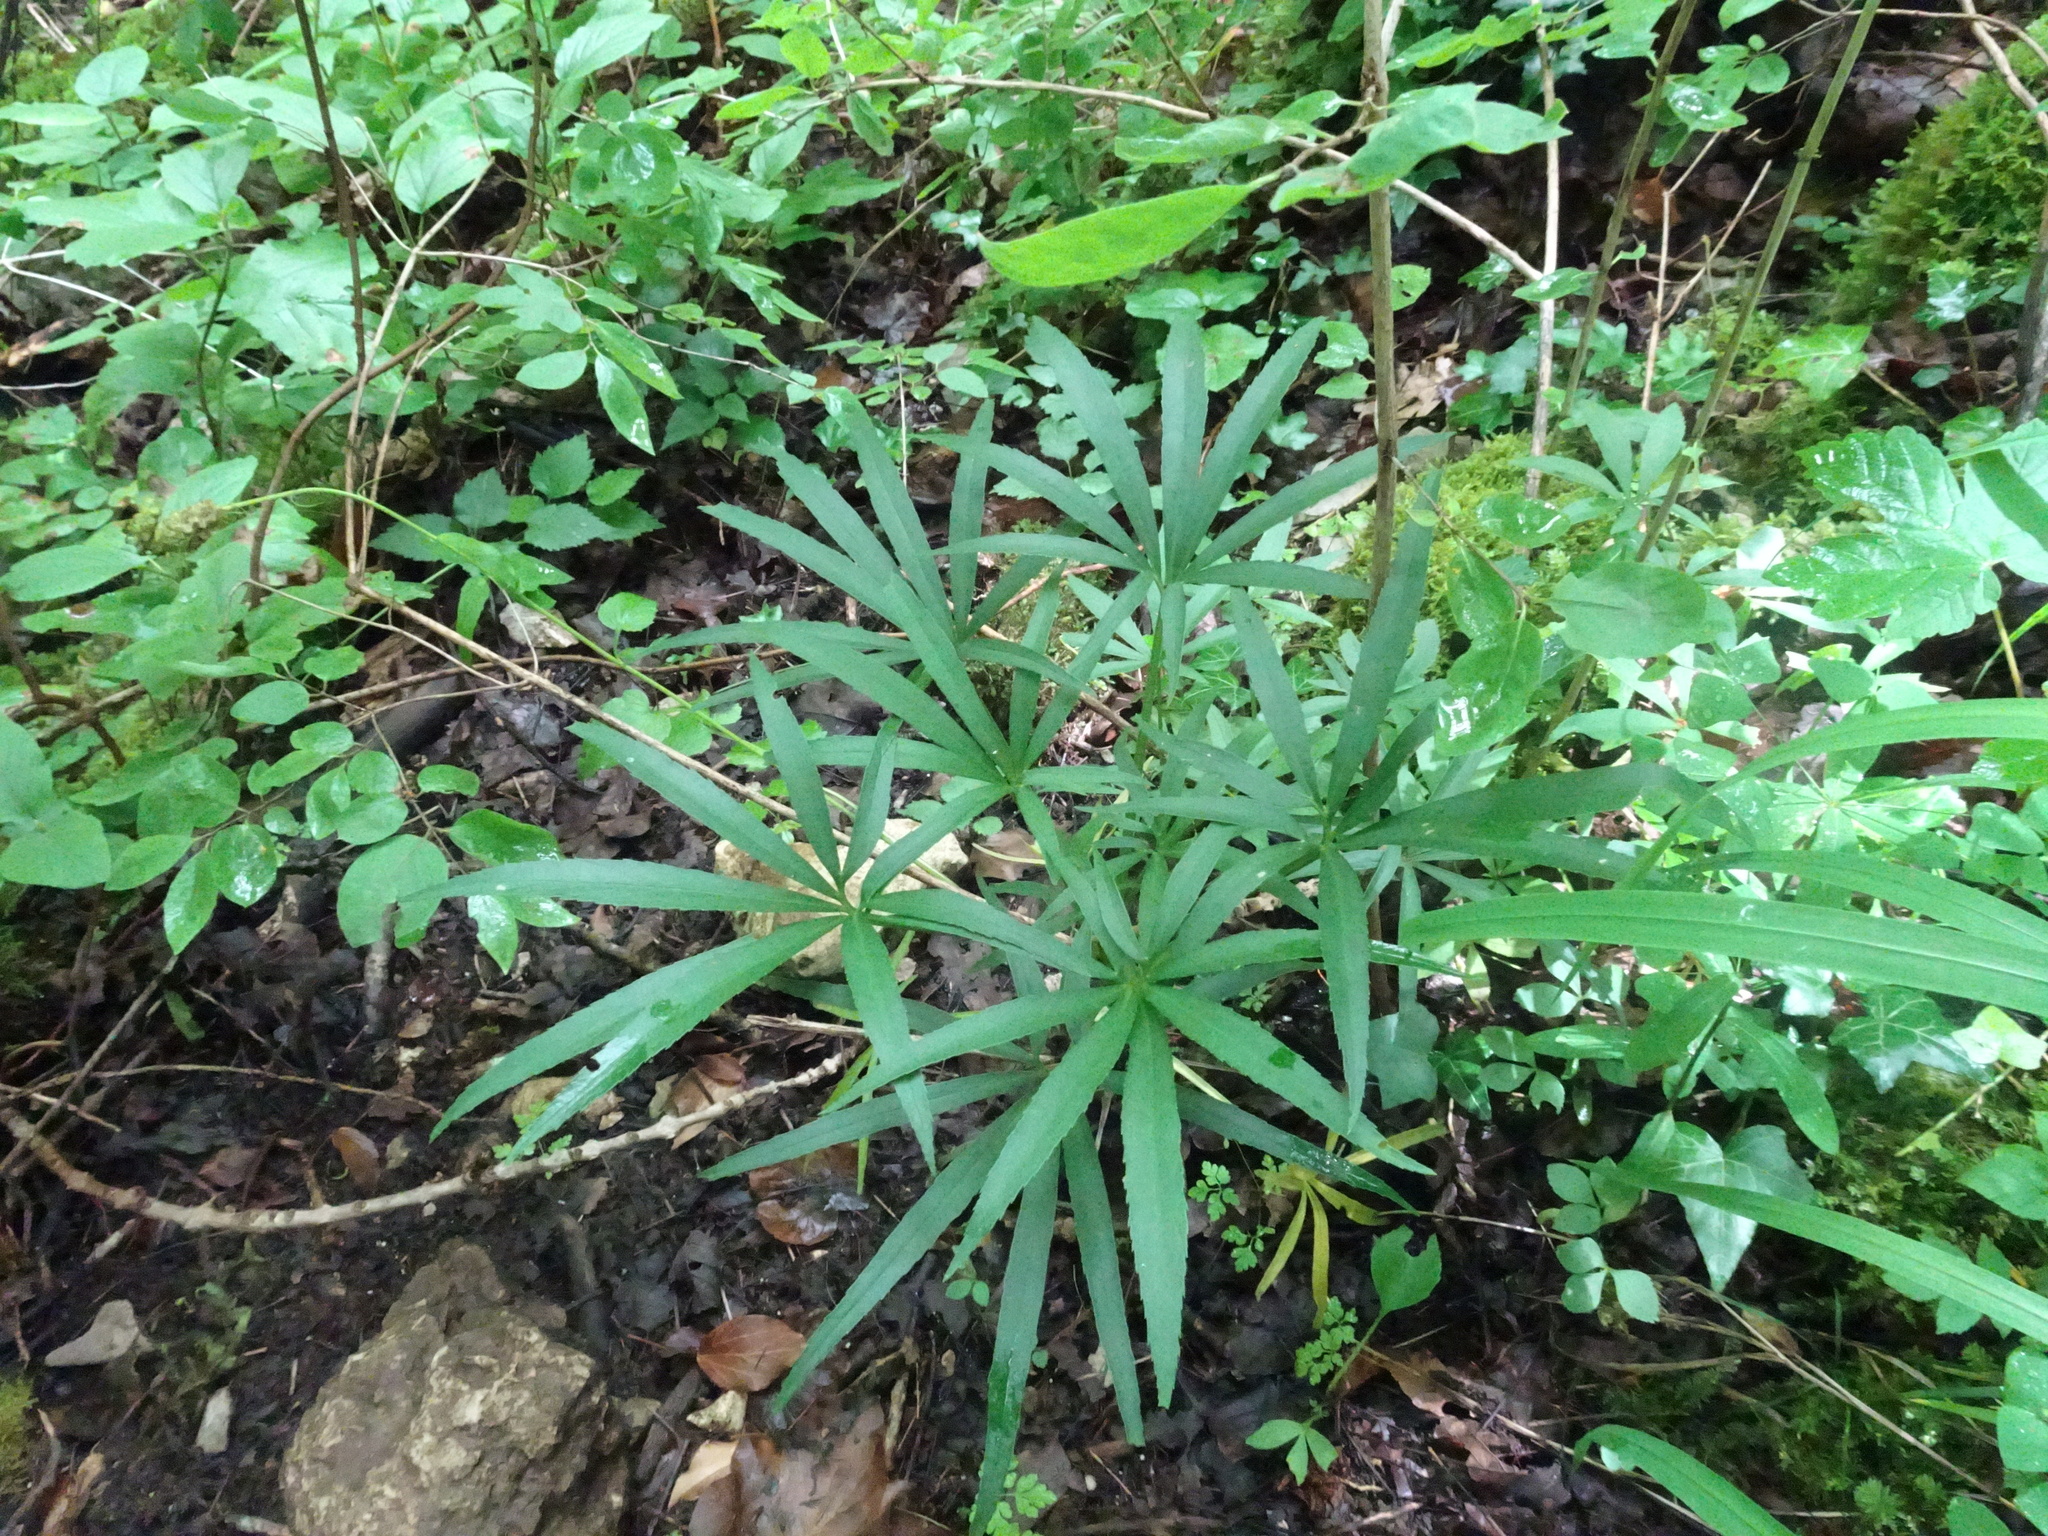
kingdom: Plantae
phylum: Tracheophyta
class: Magnoliopsida
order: Ranunculales
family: Ranunculaceae
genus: Helleborus
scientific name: Helleborus foetidus
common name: Stinking hellebore
